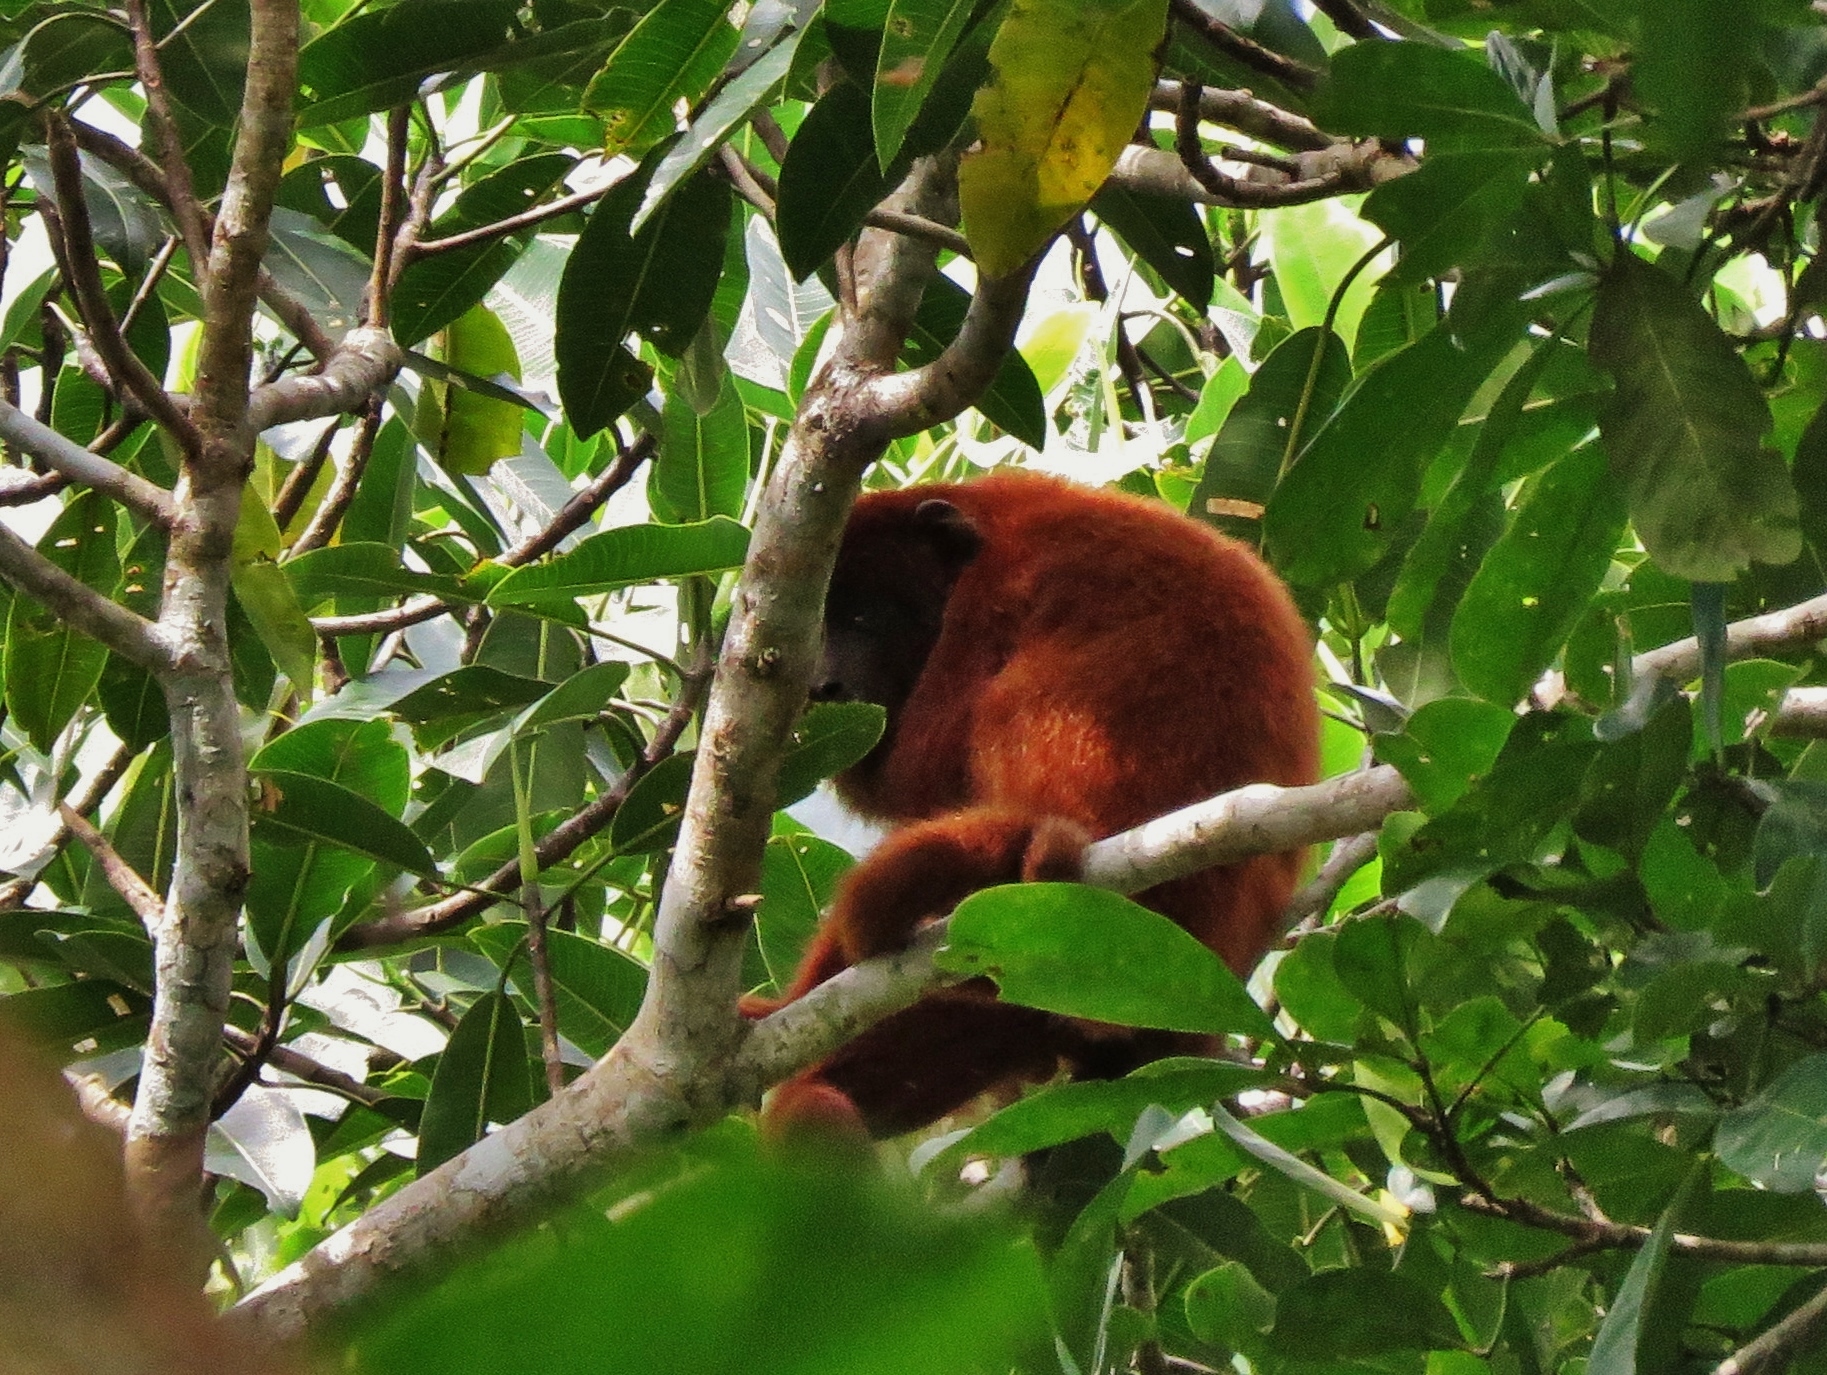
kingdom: Animalia
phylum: Chordata
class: Mammalia
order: Primates
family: Atelidae
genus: Alouatta
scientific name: Alouatta sara
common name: Bolivian red howler
